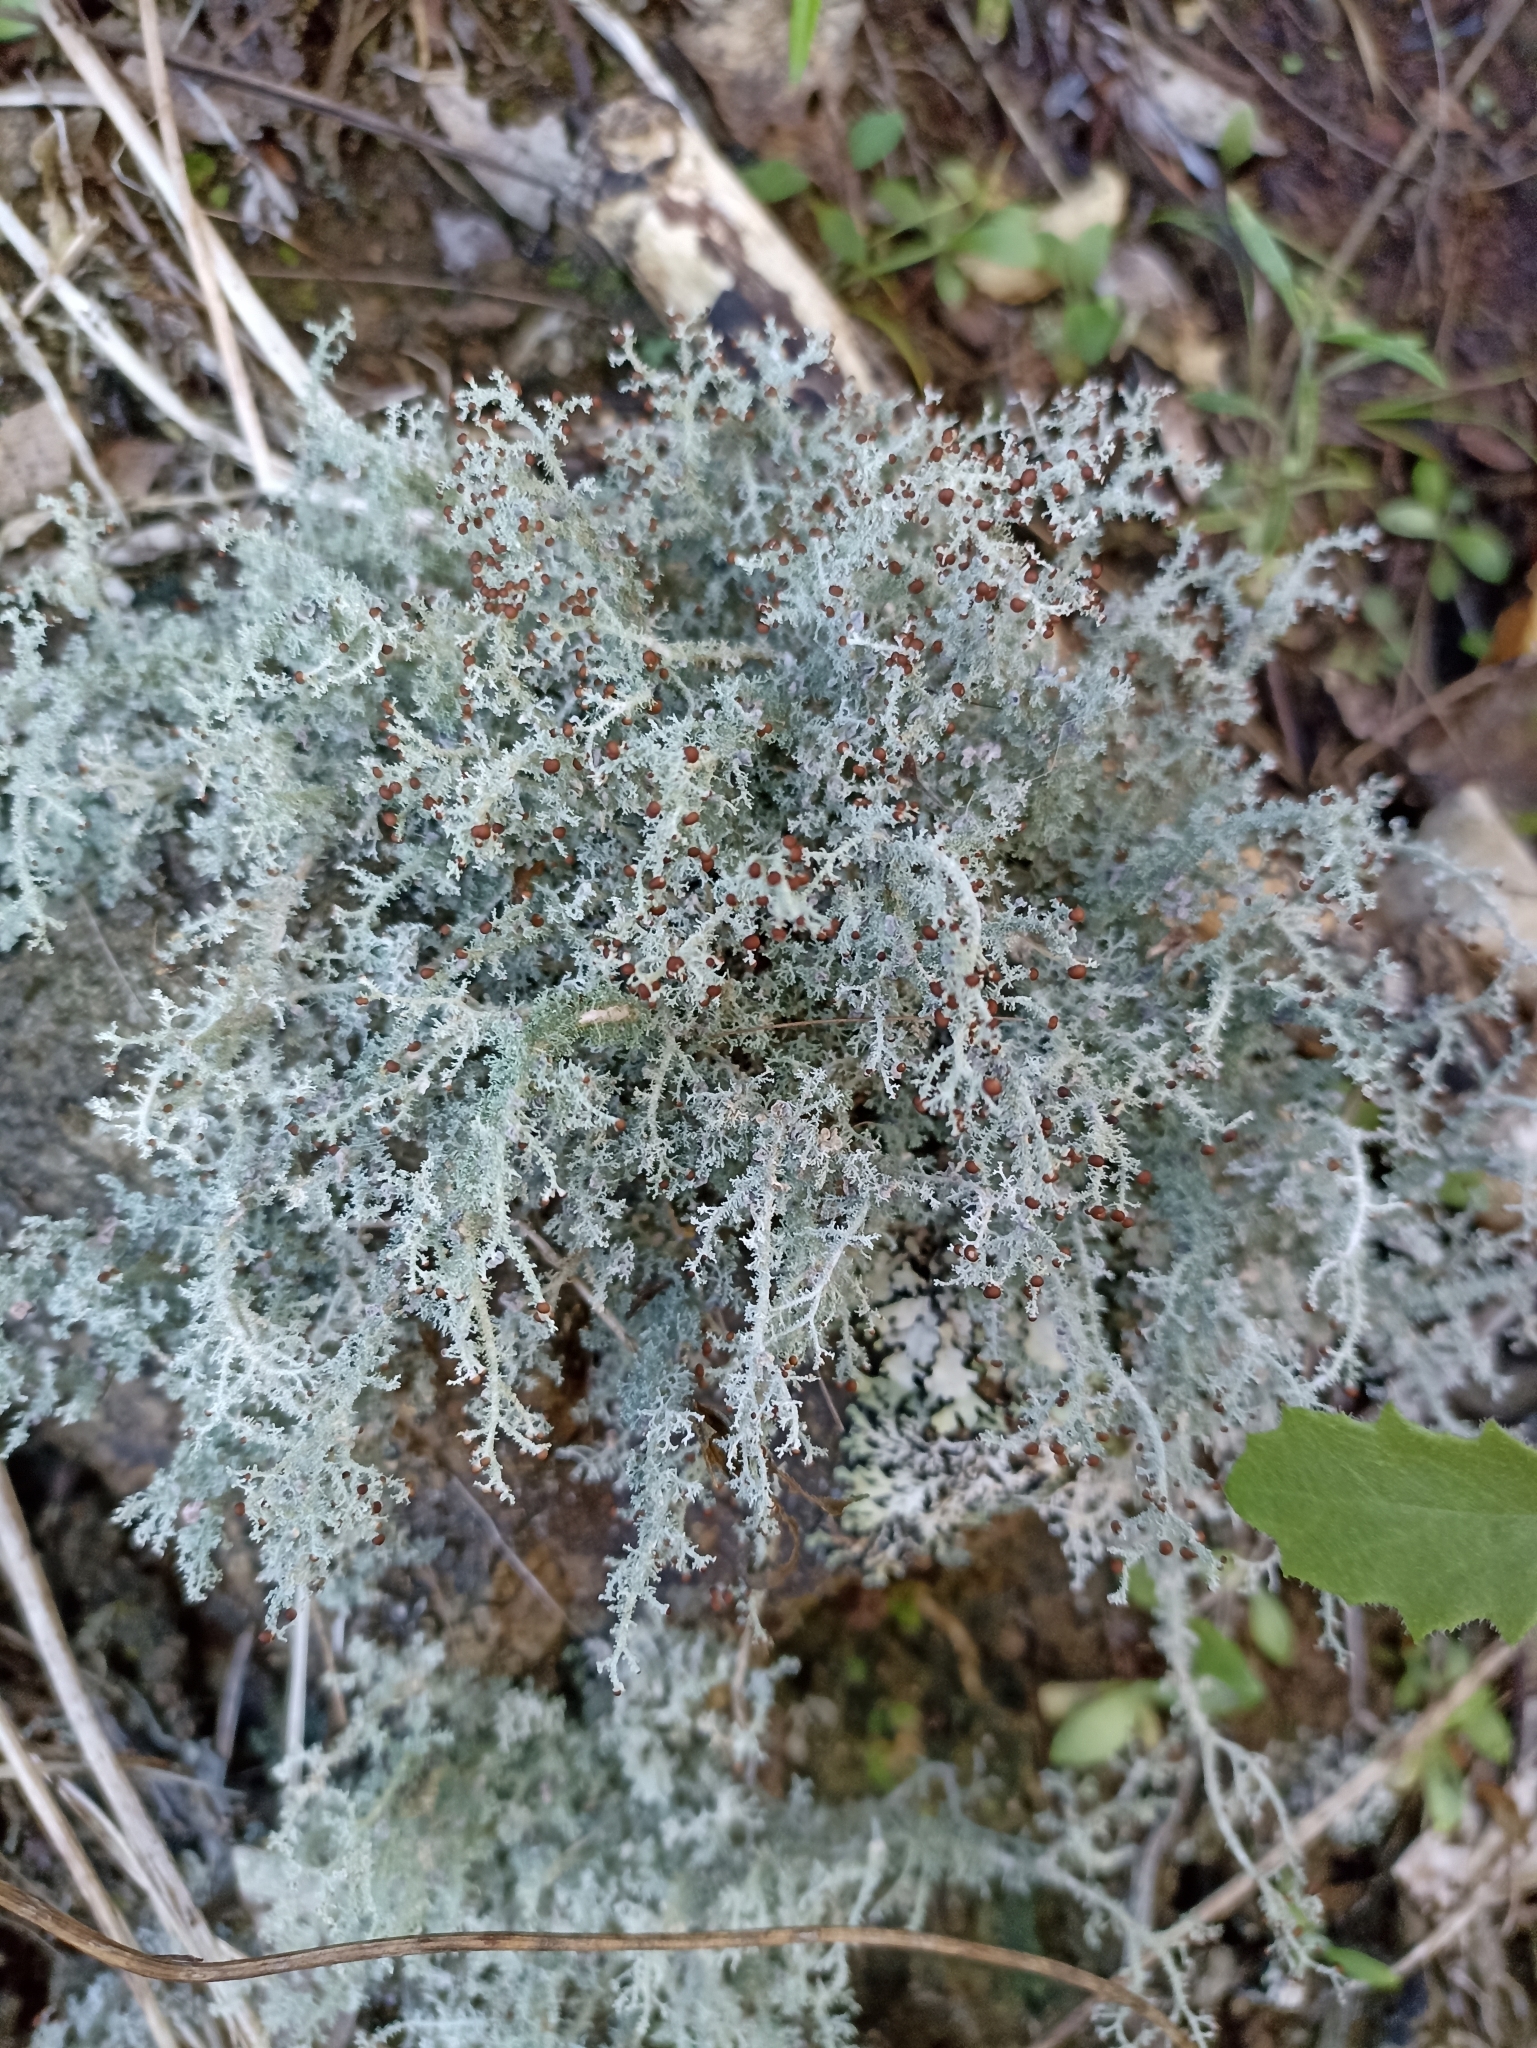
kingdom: Fungi
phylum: Ascomycota
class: Lecanoromycetes
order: Lecanorales
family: Stereocaulaceae
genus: Stereocaulon
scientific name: Stereocaulon ramulosum
